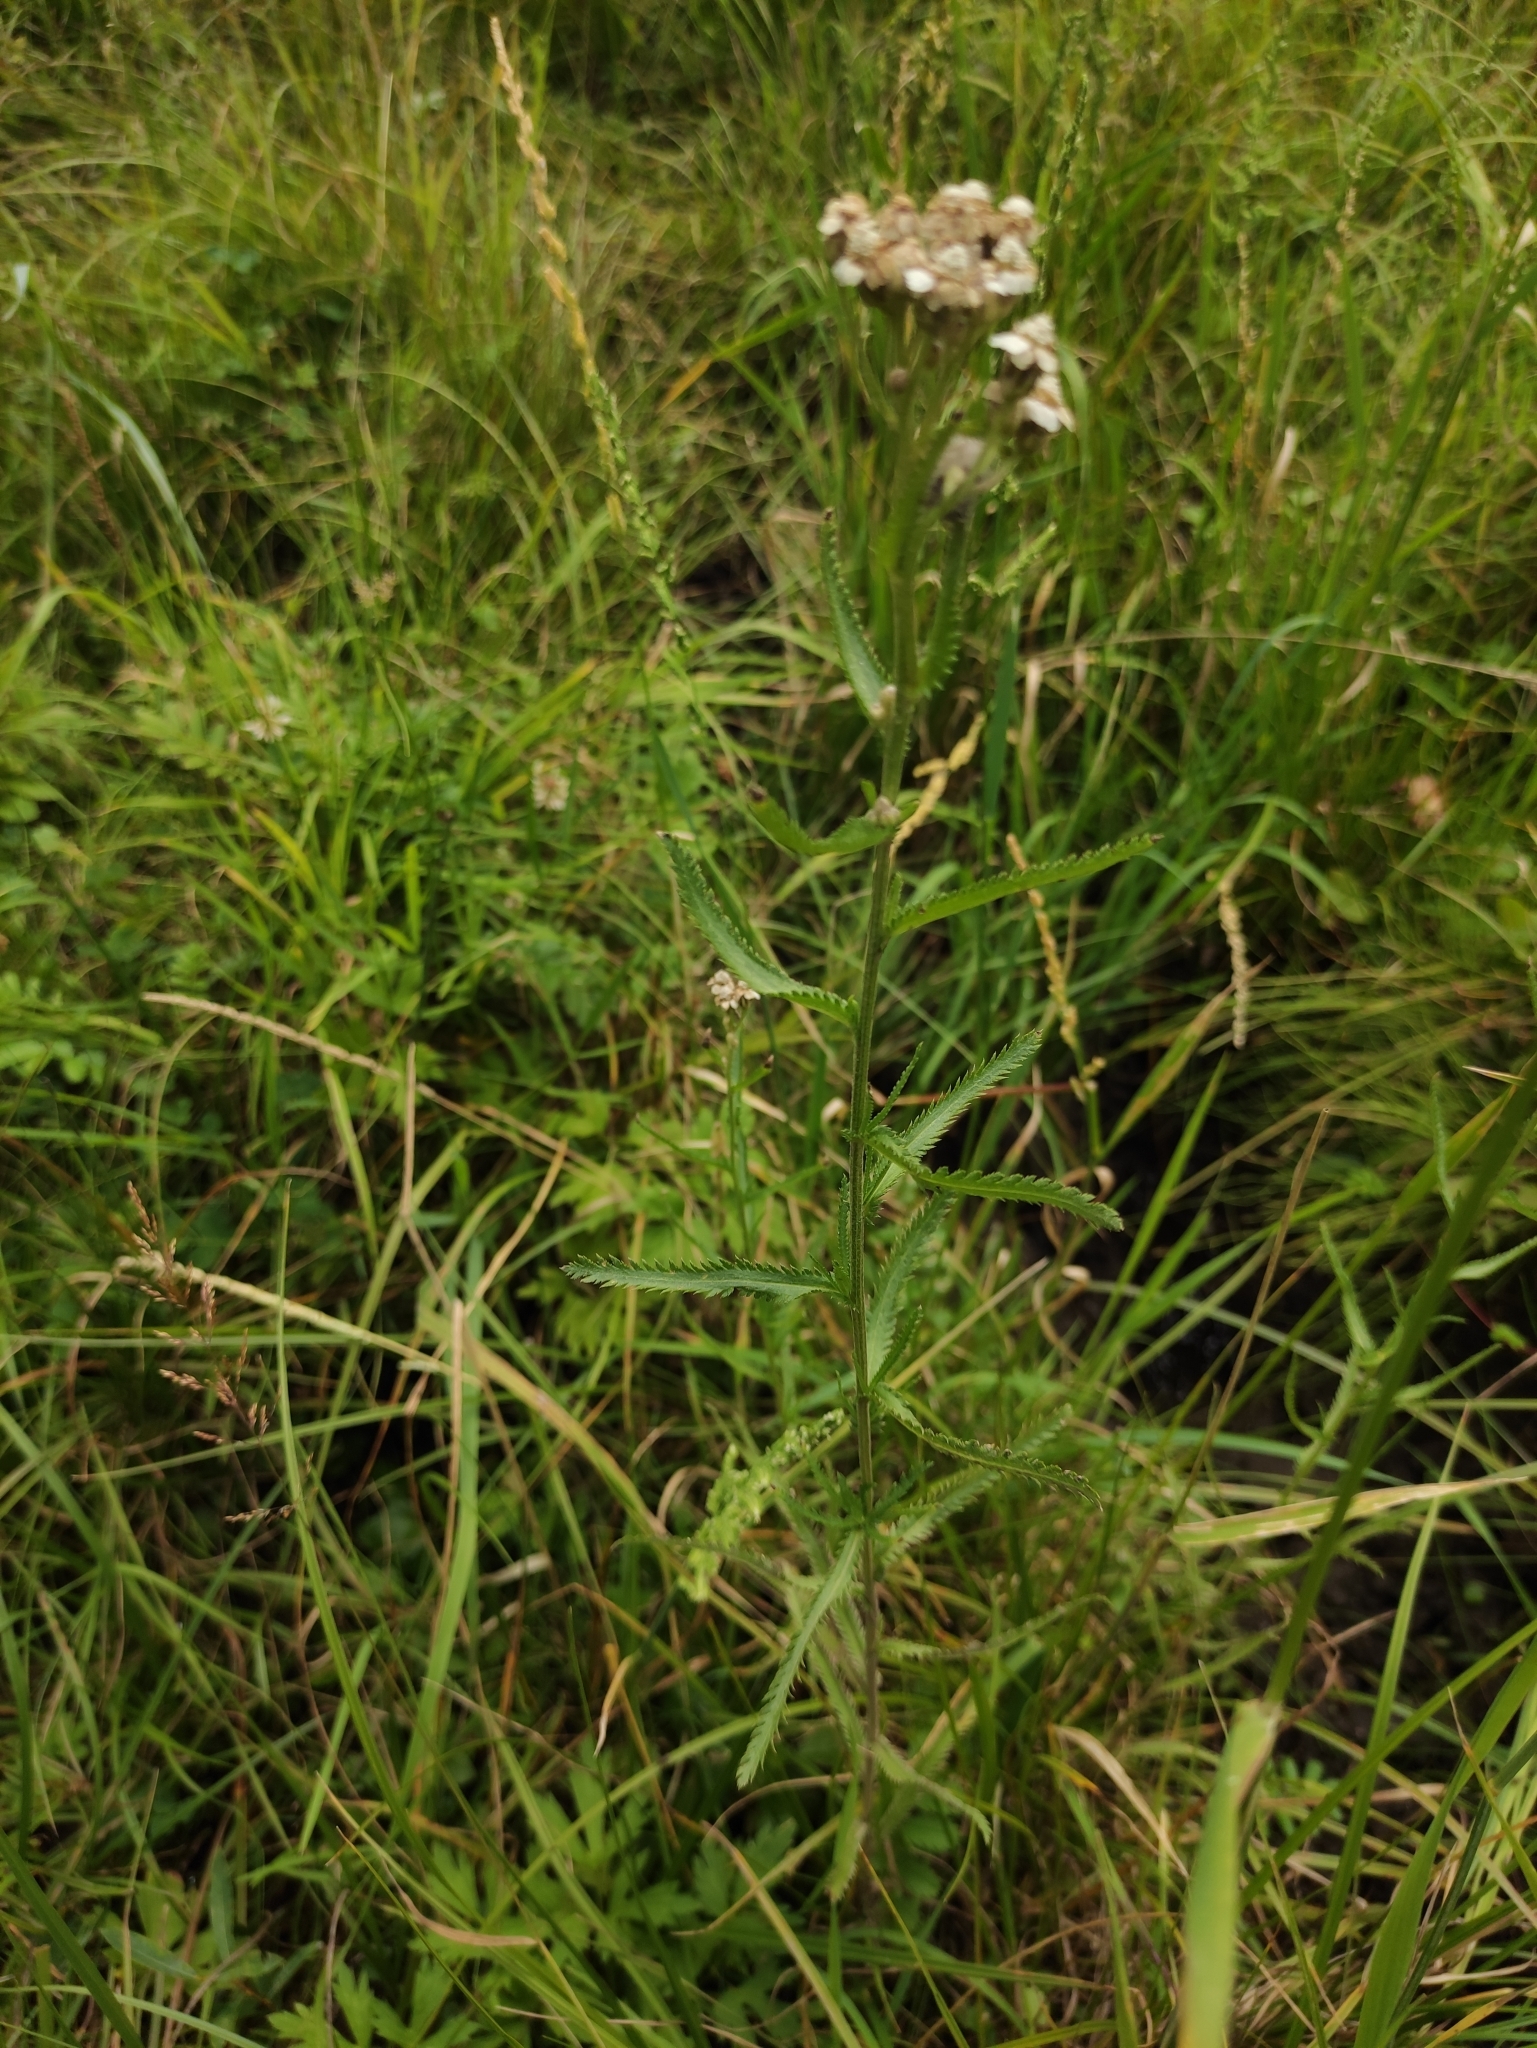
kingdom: Plantae
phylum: Tracheophyta
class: Magnoliopsida
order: Asterales
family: Asteraceae
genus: Achillea
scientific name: Achillea alpina
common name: Siberian yarrow
